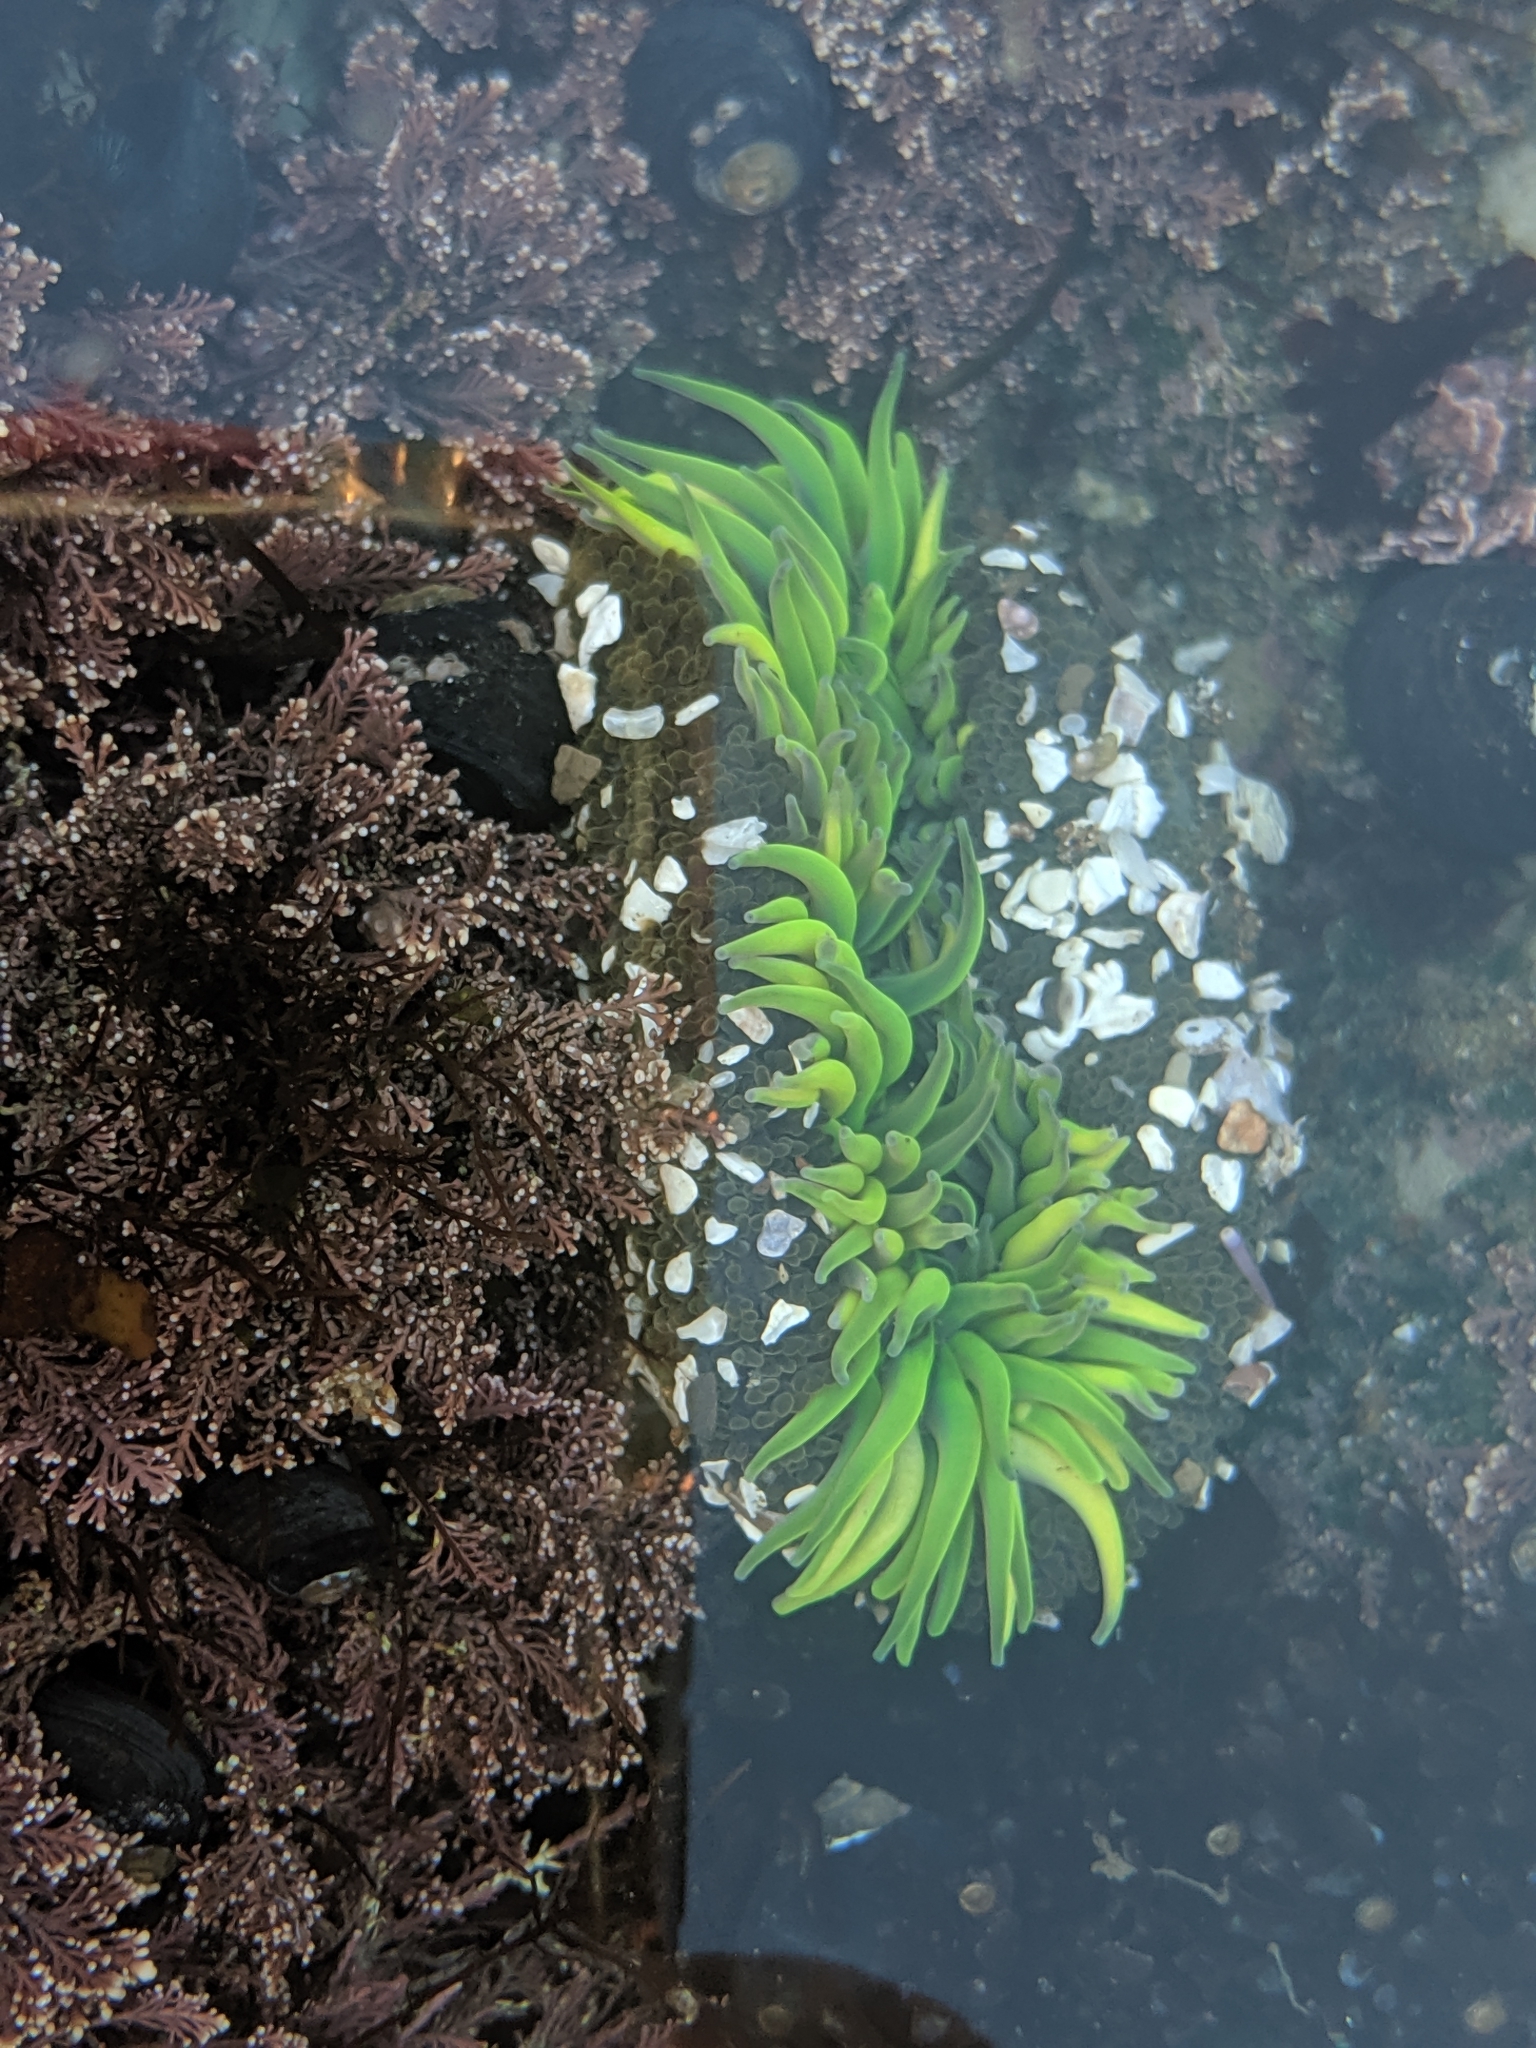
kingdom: Animalia
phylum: Cnidaria
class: Anthozoa
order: Actiniaria
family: Actiniidae
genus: Anthopleura
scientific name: Anthopleura xanthogrammica
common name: Giant green anemone
